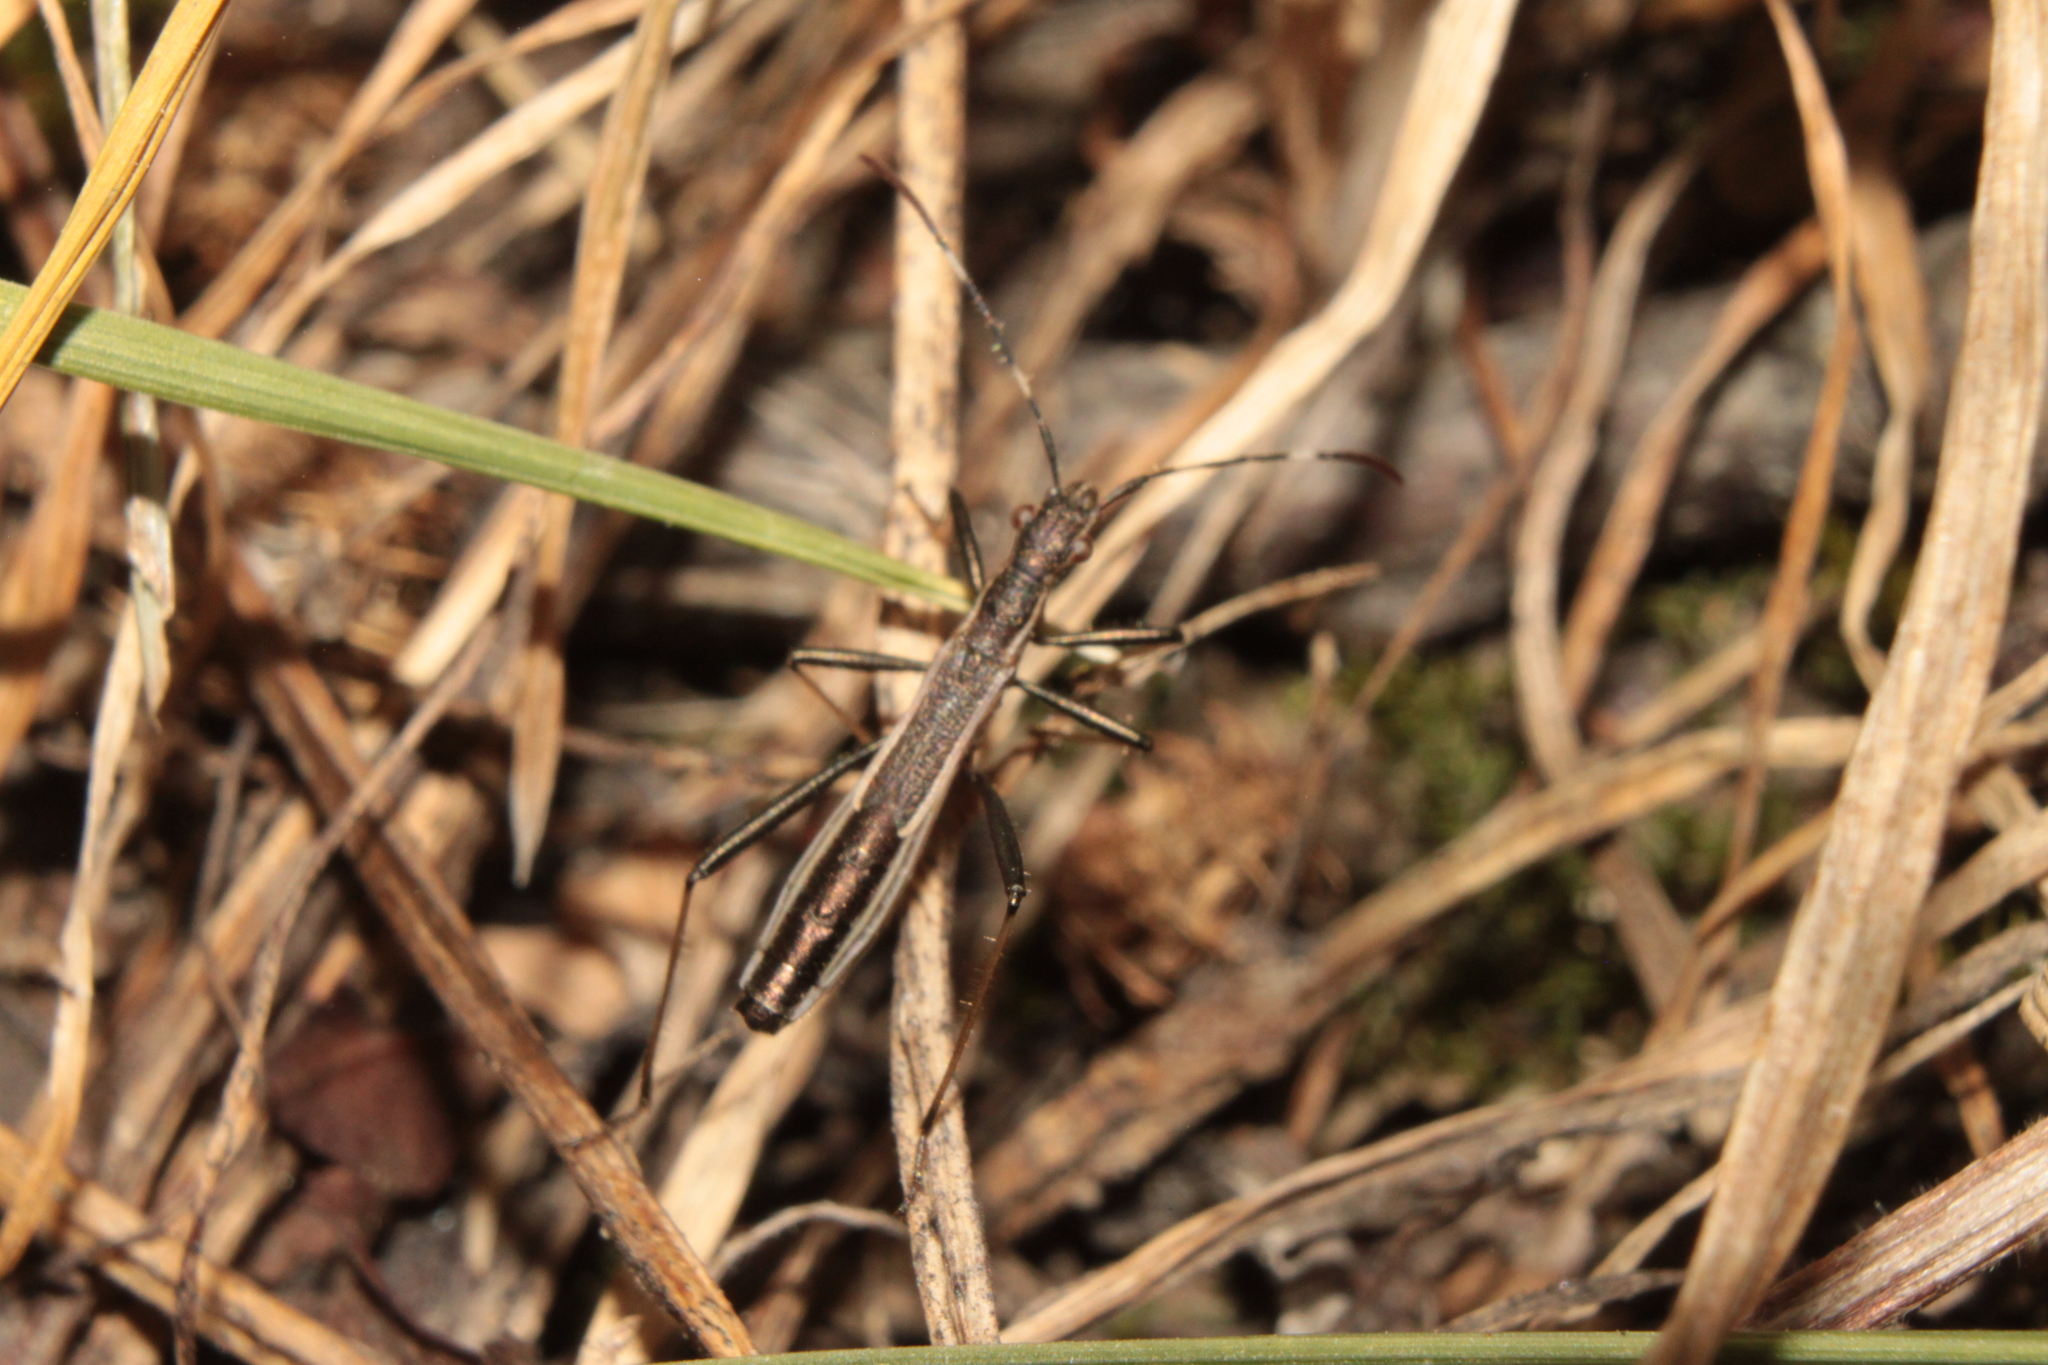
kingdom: Animalia
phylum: Arthropoda
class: Insecta
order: Hemiptera
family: Alydidae
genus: Micrelytra
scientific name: Micrelytra fossularum
